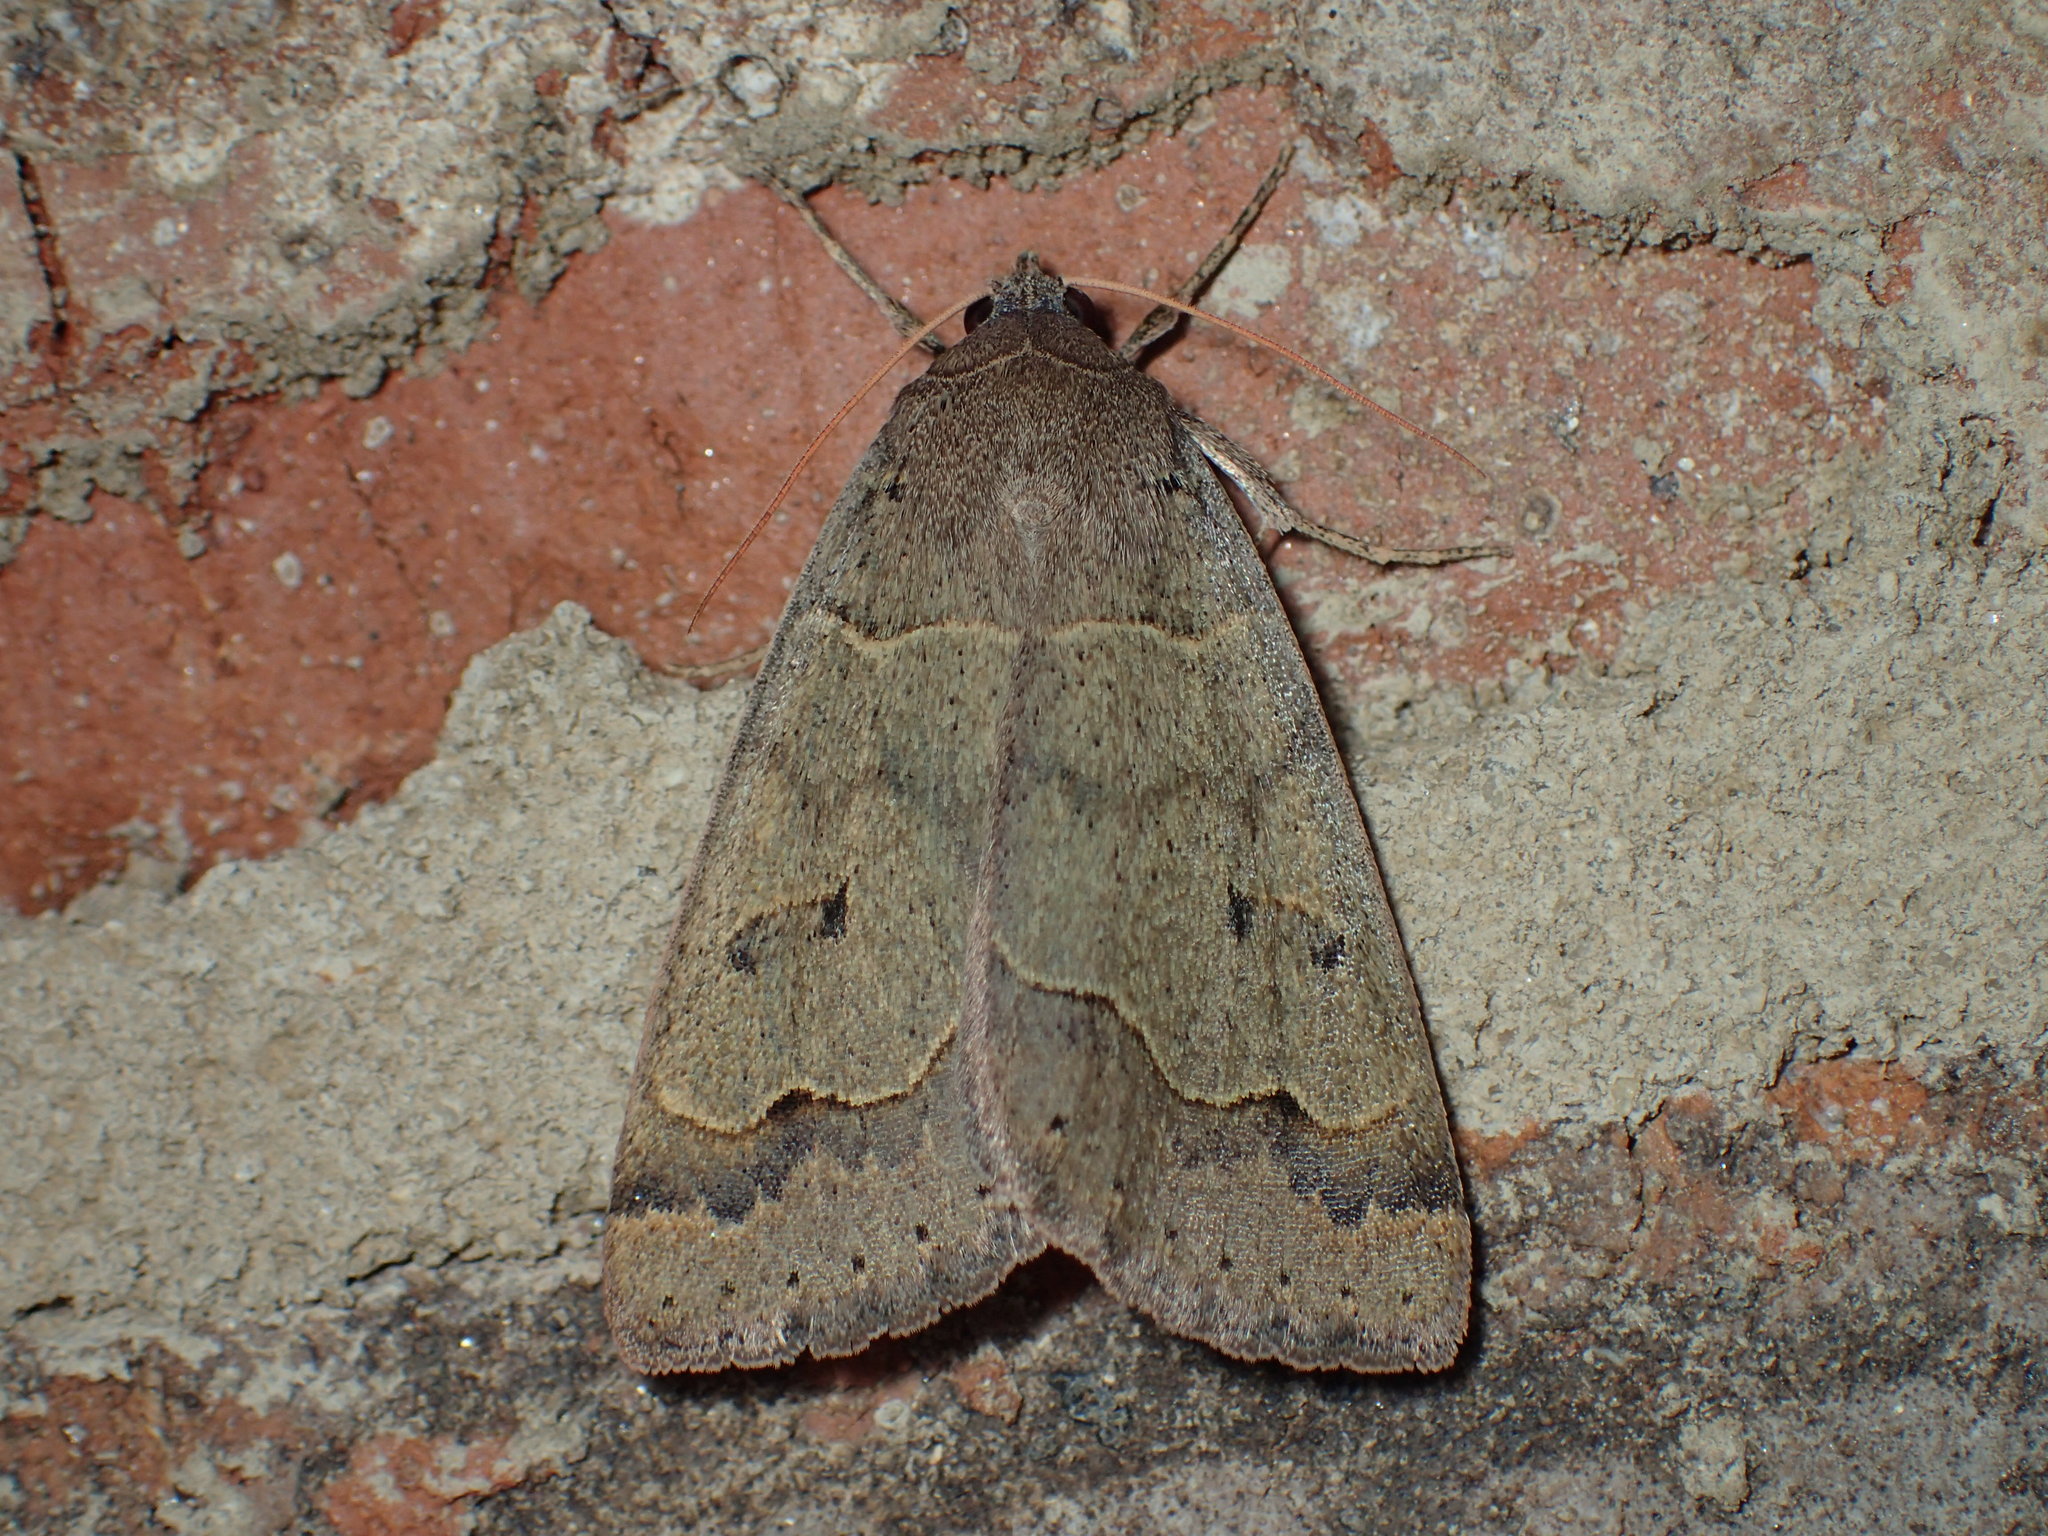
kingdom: Animalia
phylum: Arthropoda
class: Insecta
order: Lepidoptera
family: Erebidae
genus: Phoberia
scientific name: Phoberia atomaris
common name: Common oak moth
